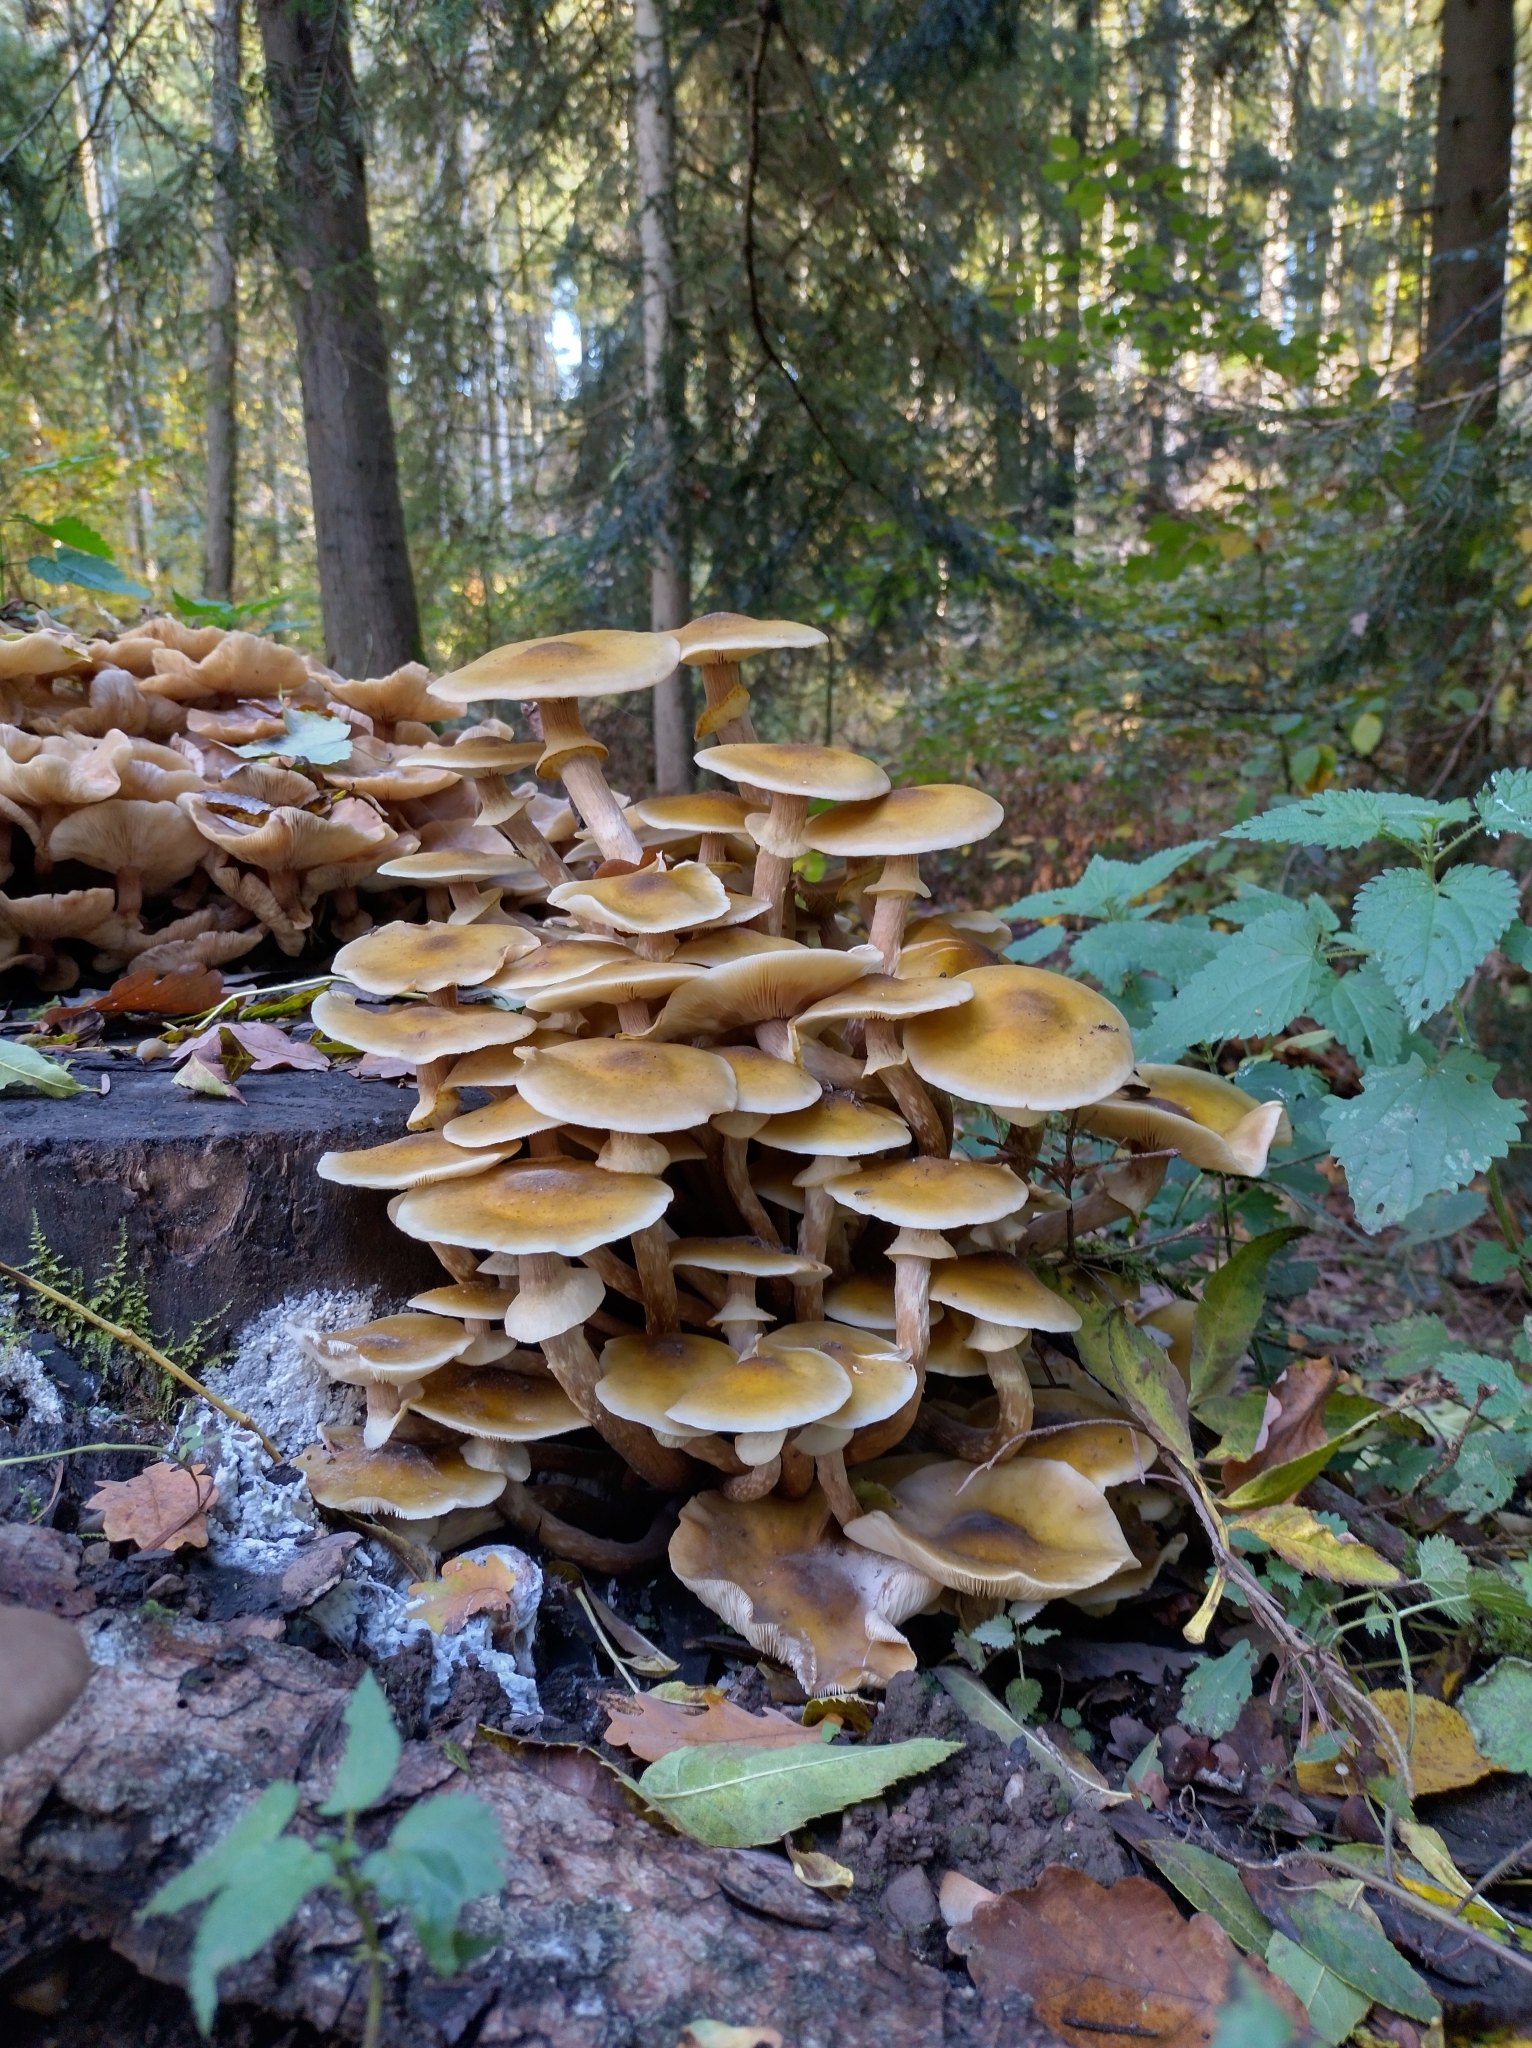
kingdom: Fungi
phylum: Basidiomycota
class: Agaricomycetes
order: Agaricales
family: Physalacriaceae
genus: Armillaria
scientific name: Armillaria mellea
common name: Honey fungus
